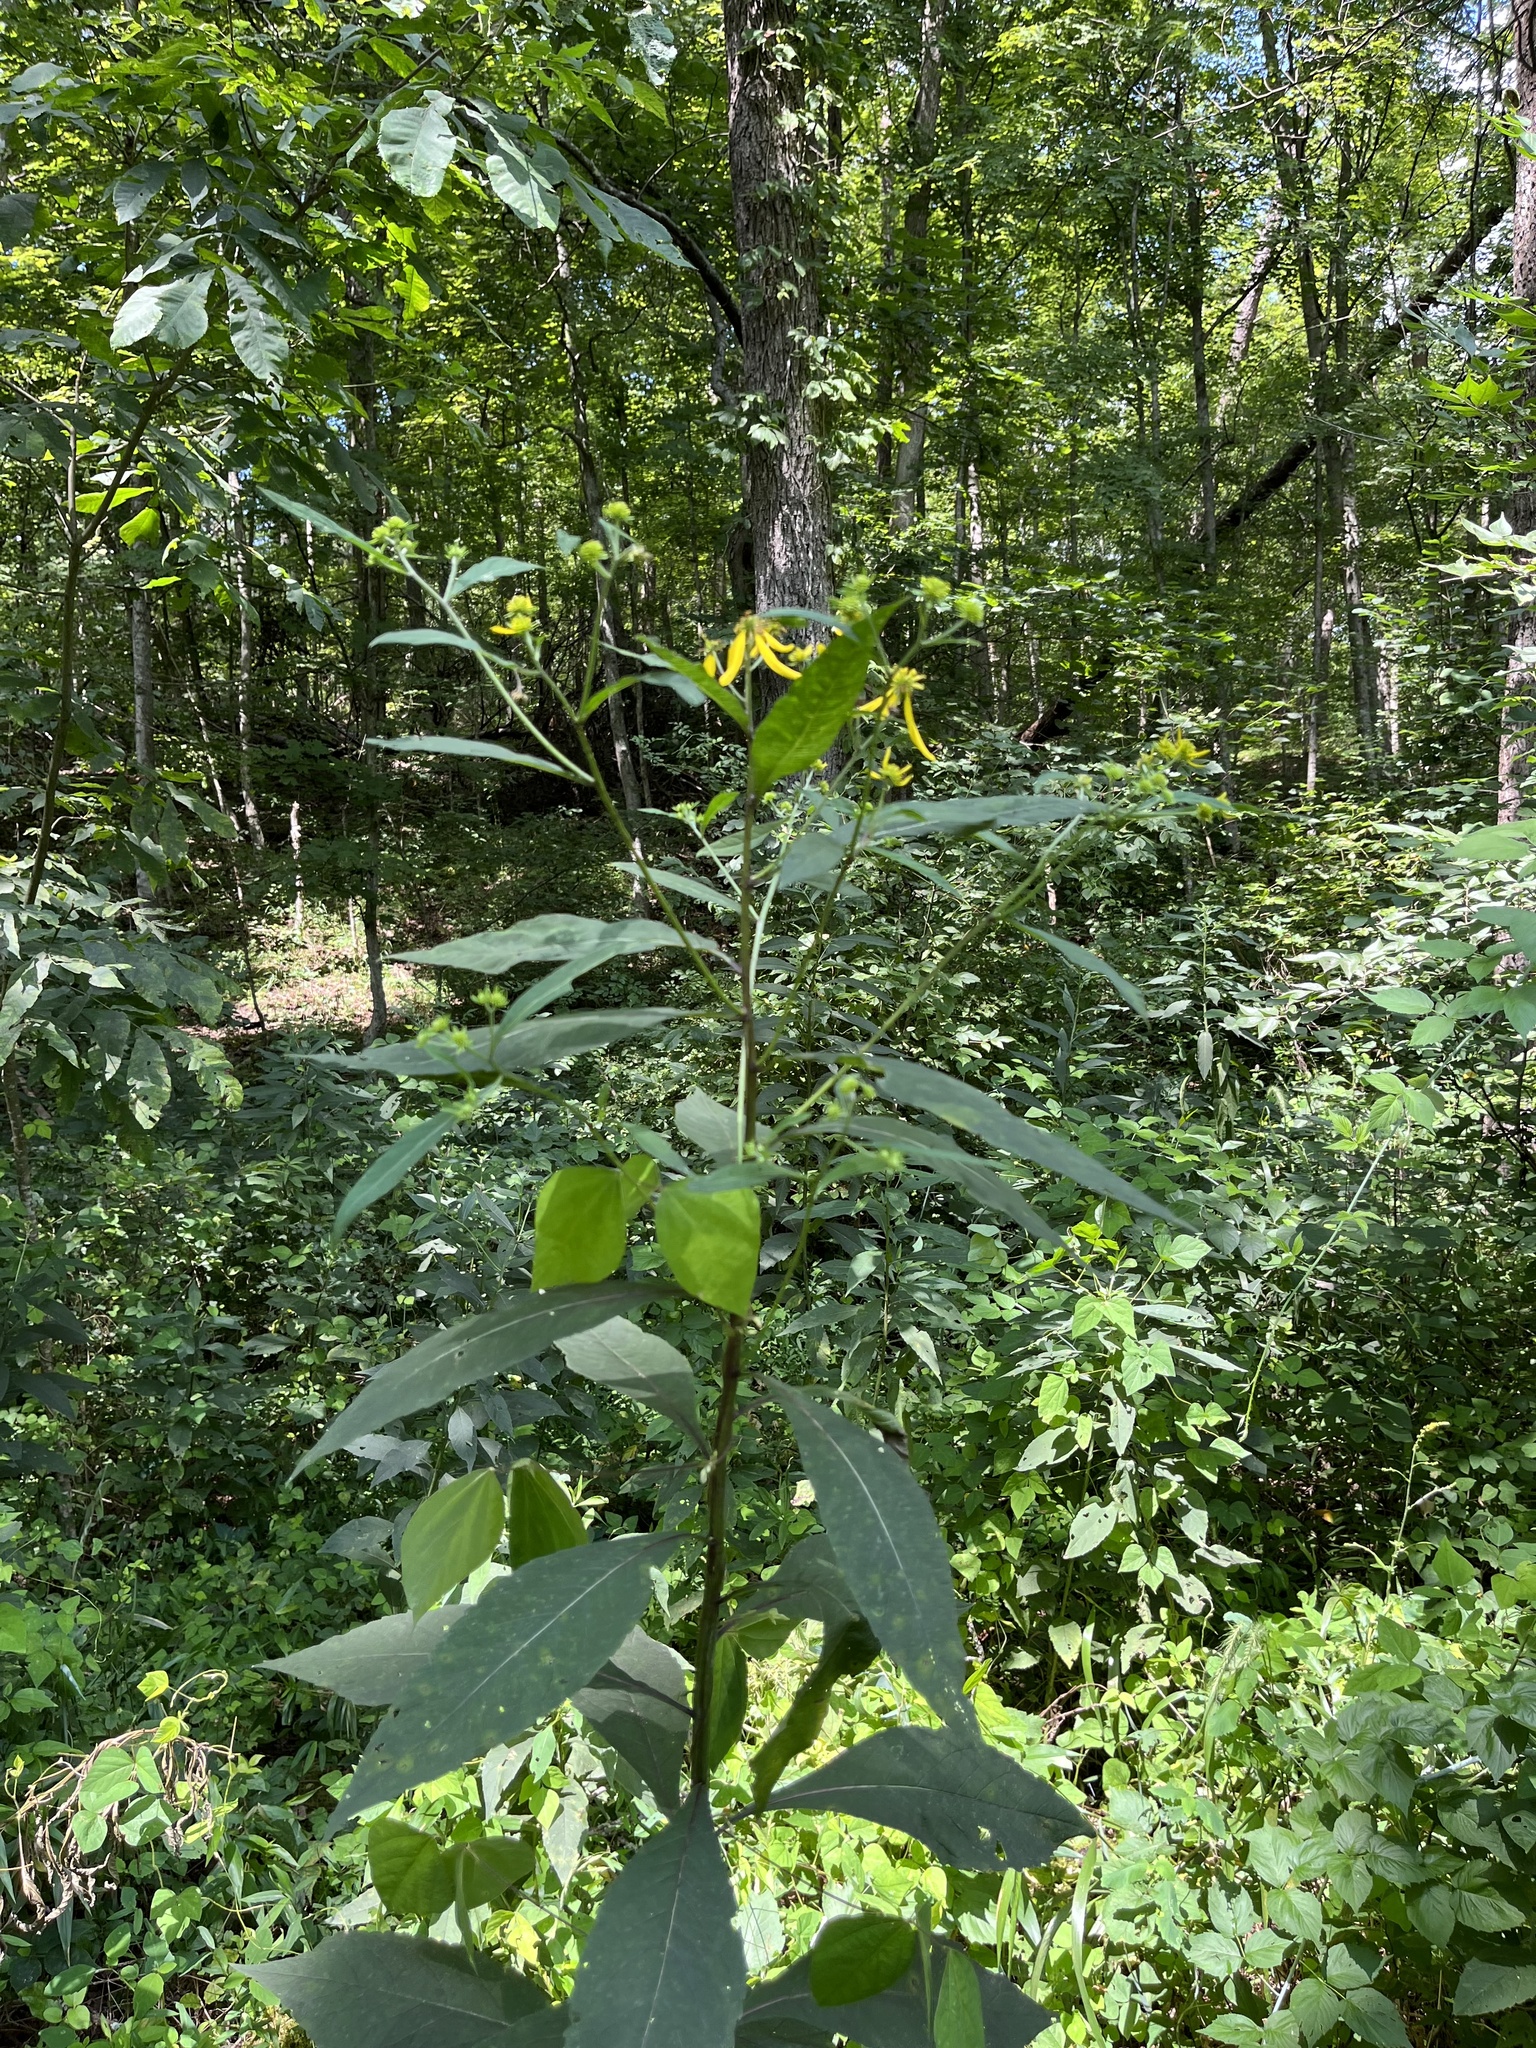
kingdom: Plantae
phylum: Tracheophyta
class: Magnoliopsida
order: Asterales
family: Asteraceae
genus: Verbesina
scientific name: Verbesina alternifolia
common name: Wingstem
